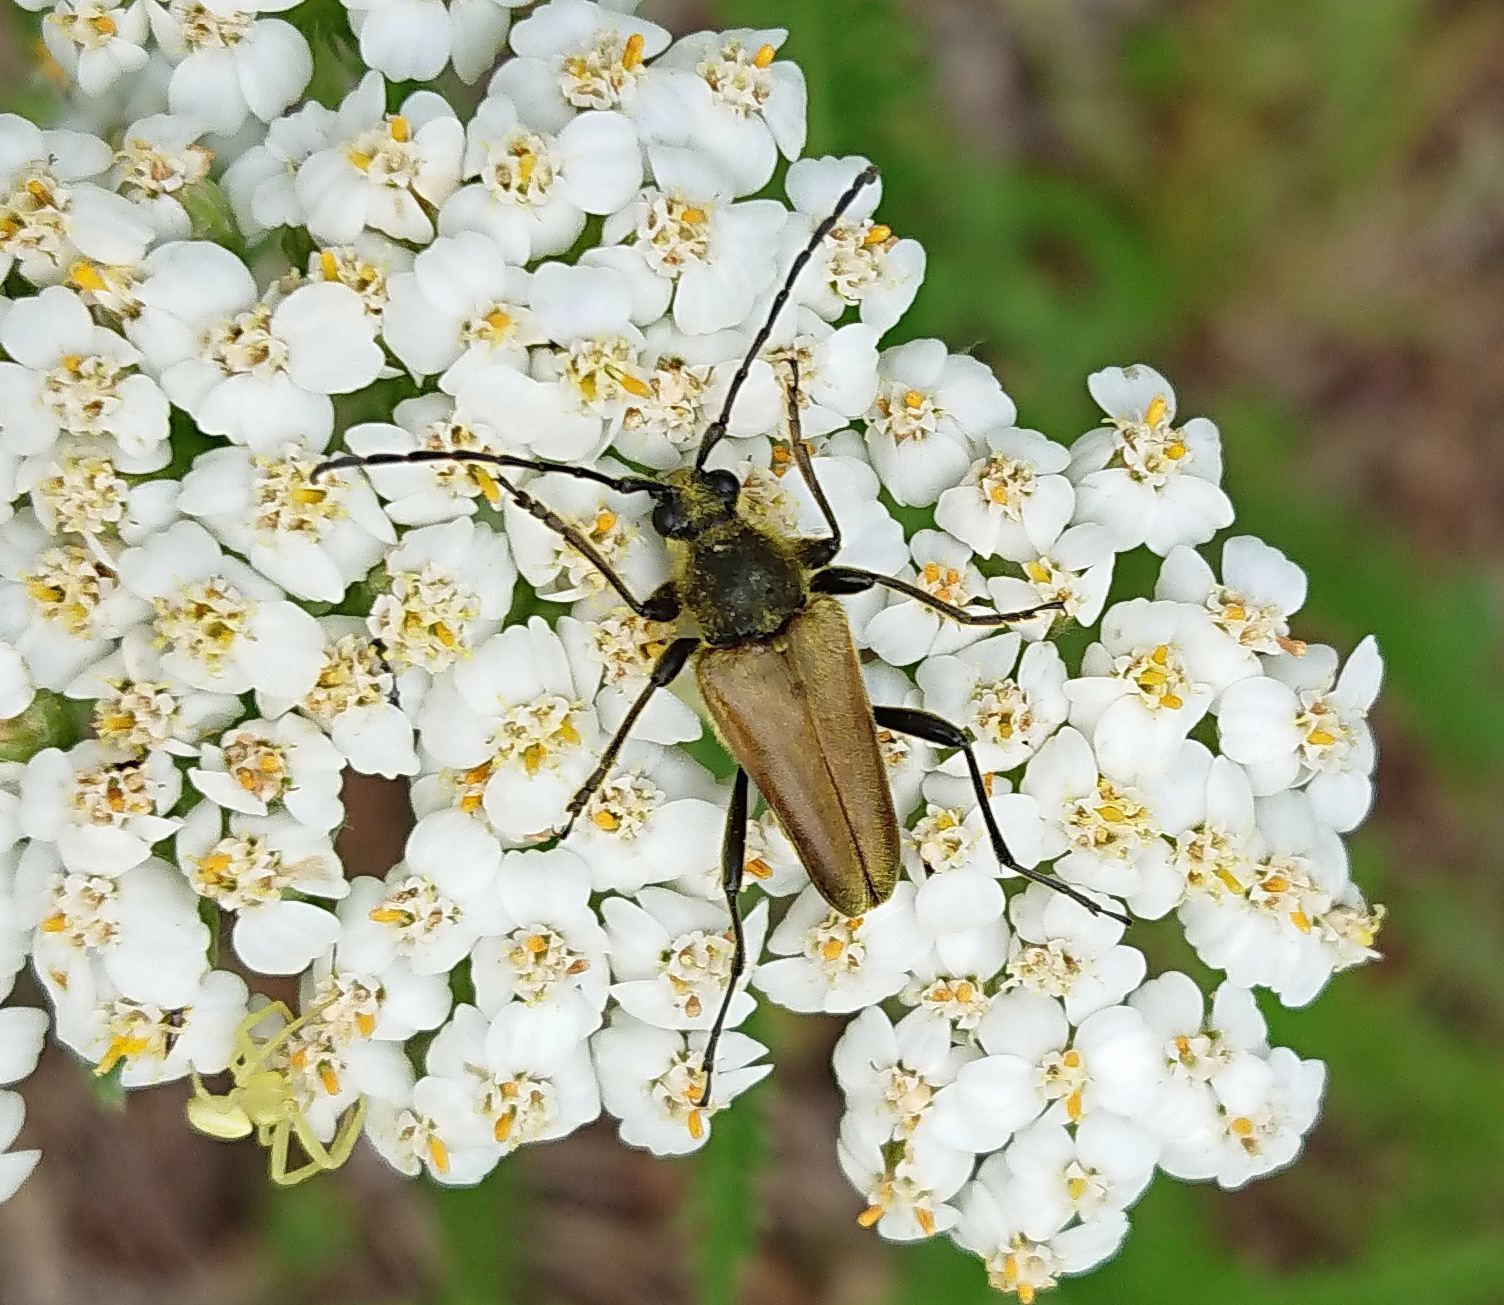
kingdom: Animalia
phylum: Arthropoda
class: Insecta
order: Coleoptera
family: Cerambycidae
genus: Cosmosalia
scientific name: Cosmosalia chrysocoma
